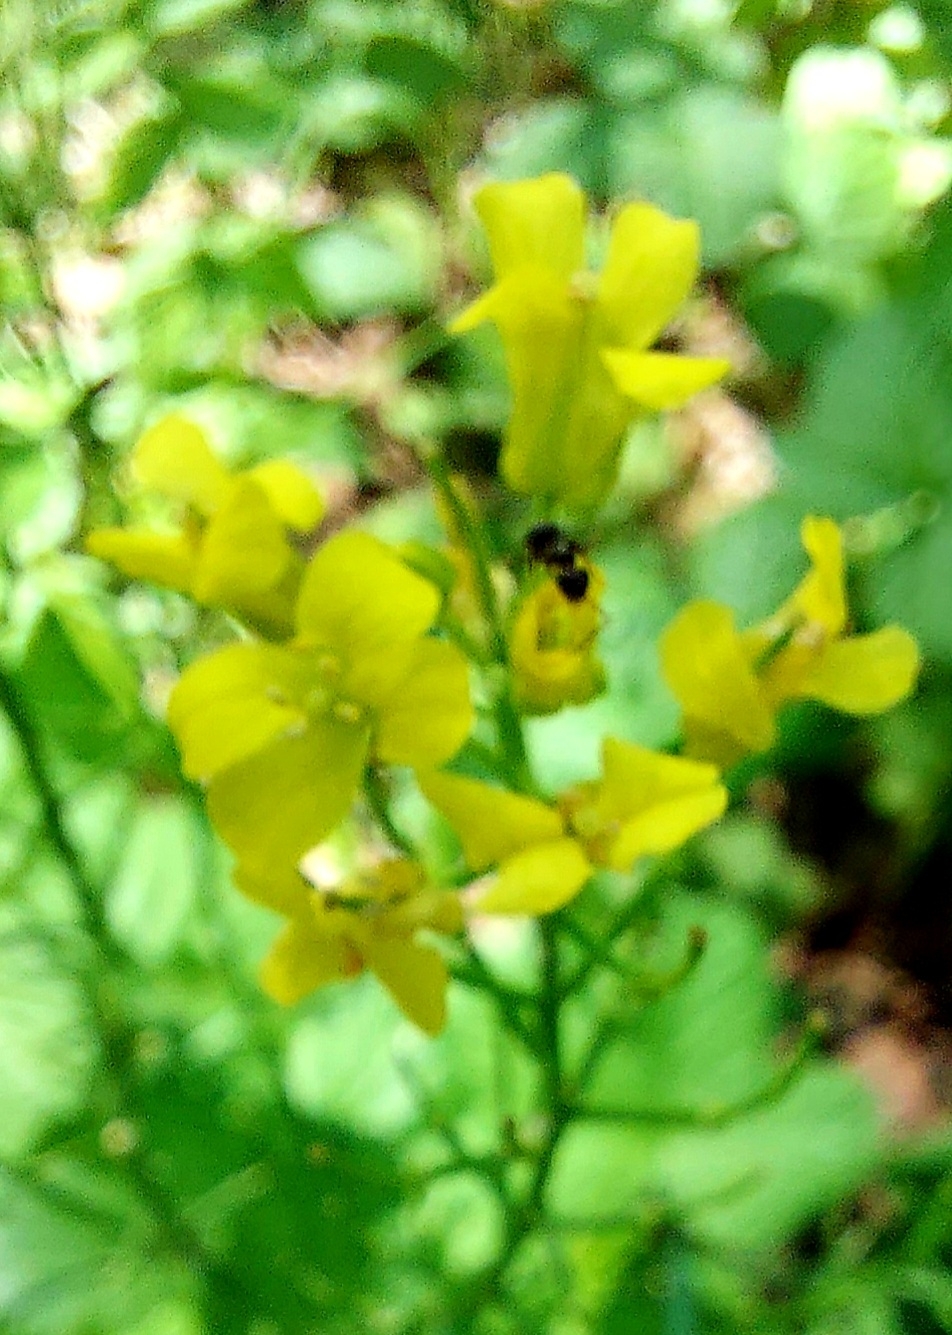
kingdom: Plantae
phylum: Tracheophyta
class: Magnoliopsida
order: Brassicales
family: Brassicaceae
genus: Barbarea
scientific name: Barbarea vulgaris
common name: Cressy-greens
